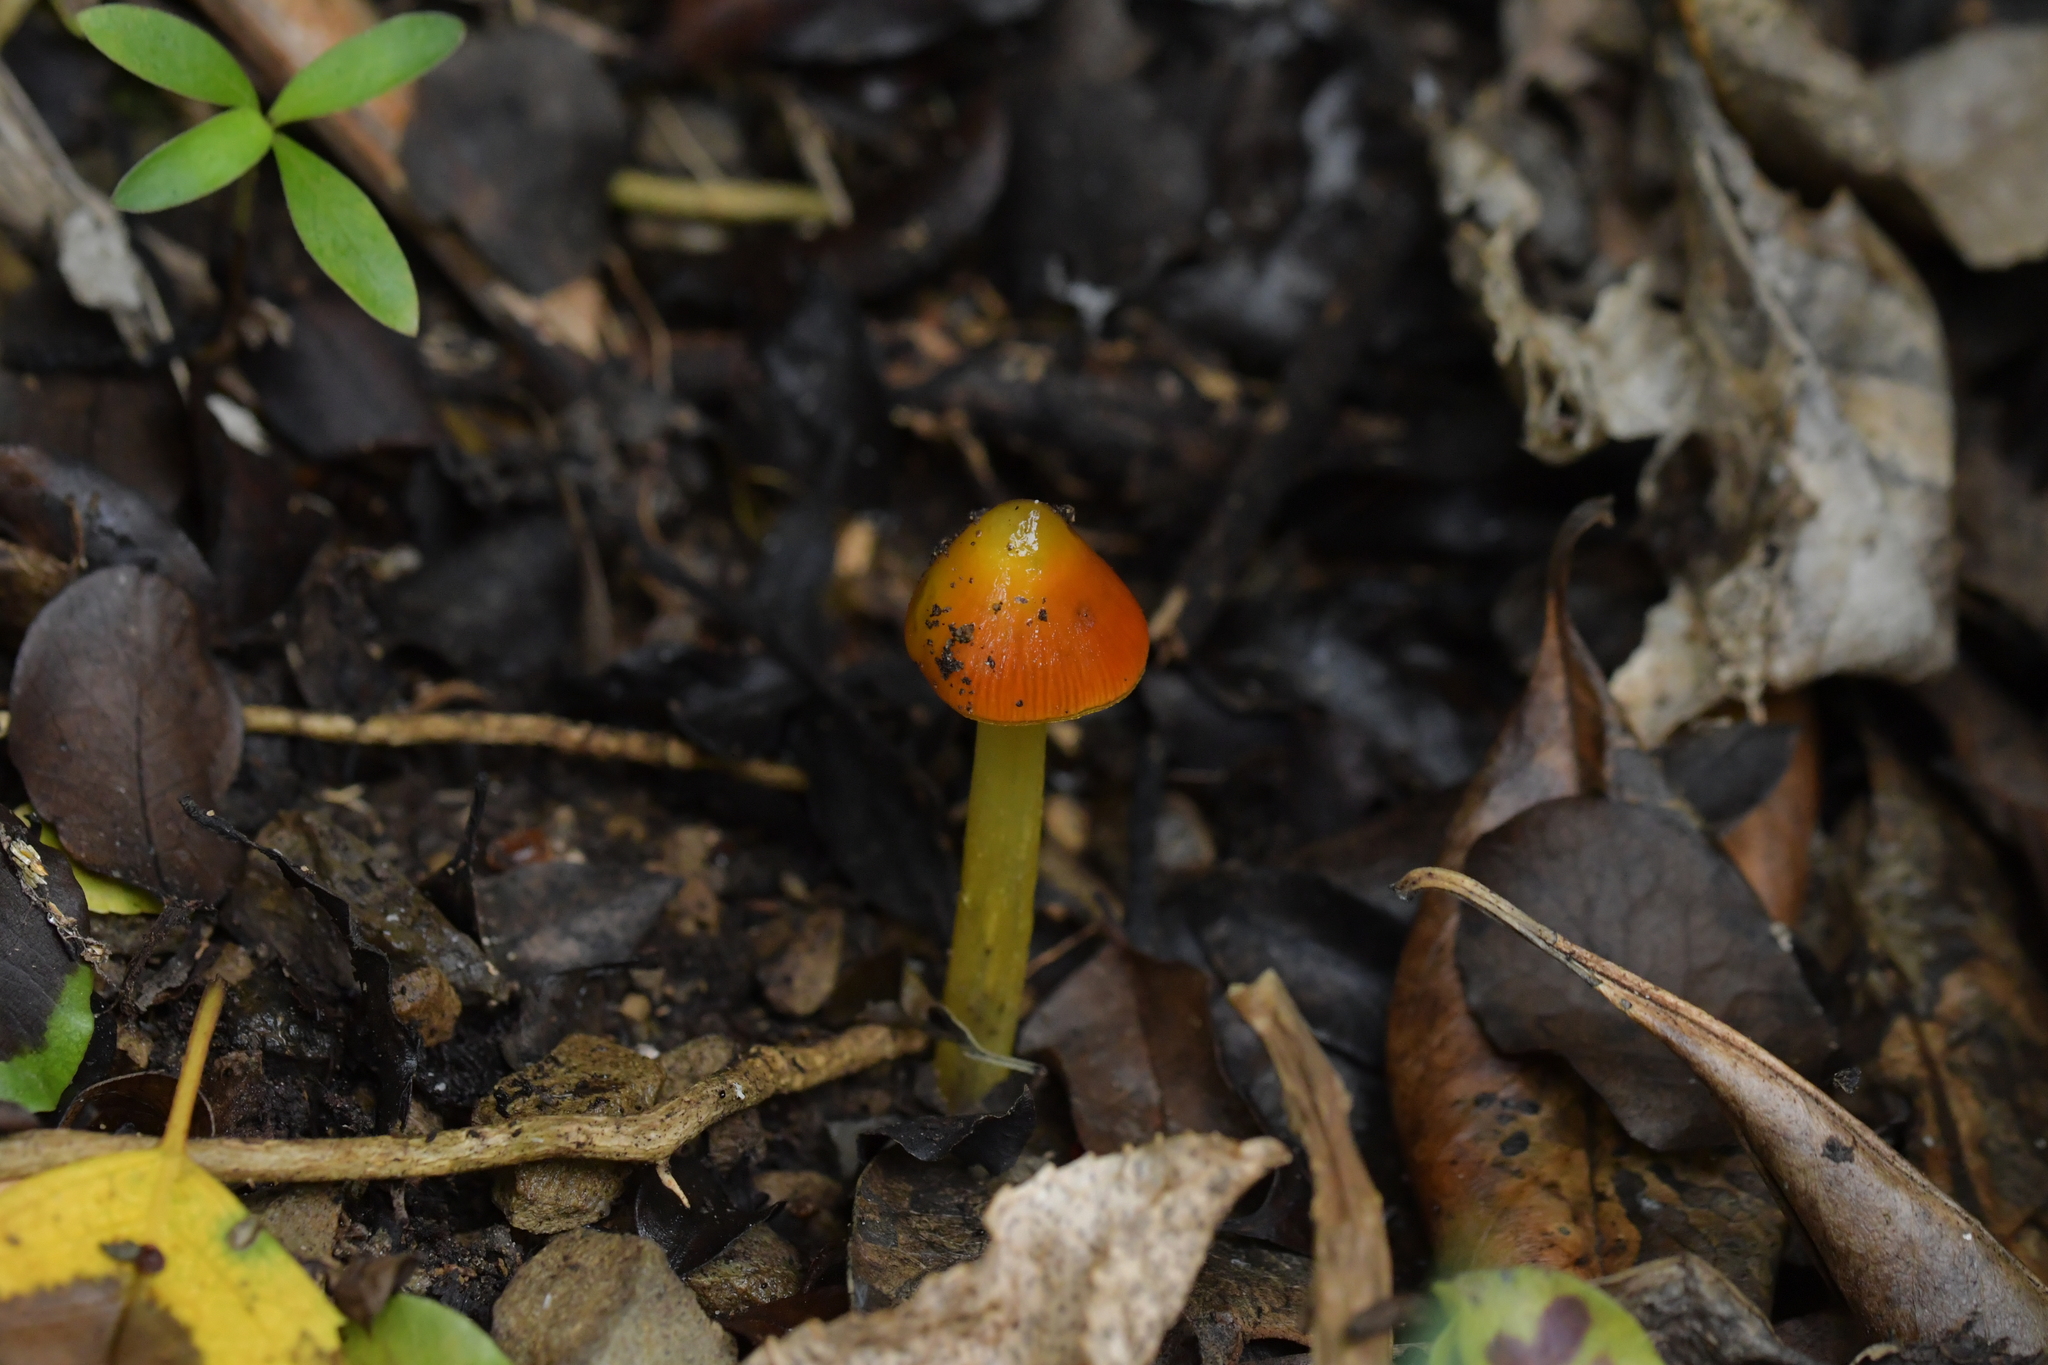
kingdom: Fungi
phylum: Basidiomycota
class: Agaricomycetes
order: Agaricales
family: Hygrophoraceae
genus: Hygrocybe
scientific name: Hygrocybe conica
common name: Blackening wax-cap
